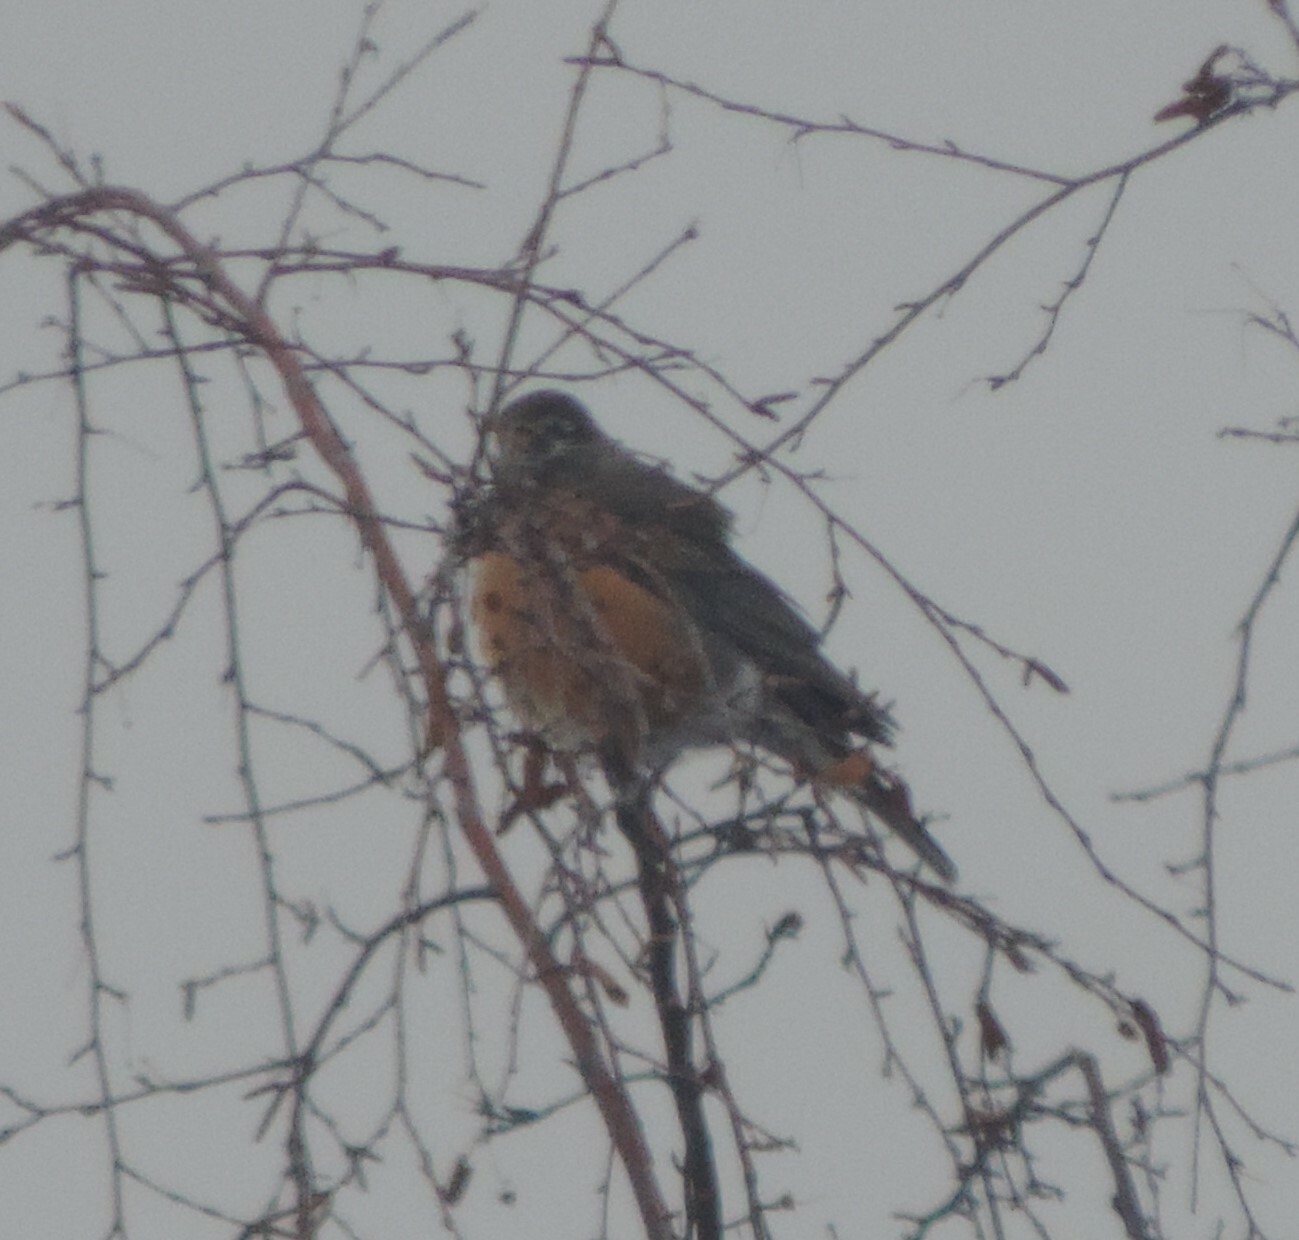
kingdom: Animalia
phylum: Chordata
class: Aves
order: Passeriformes
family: Turdidae
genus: Turdus
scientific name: Turdus migratorius
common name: American robin
